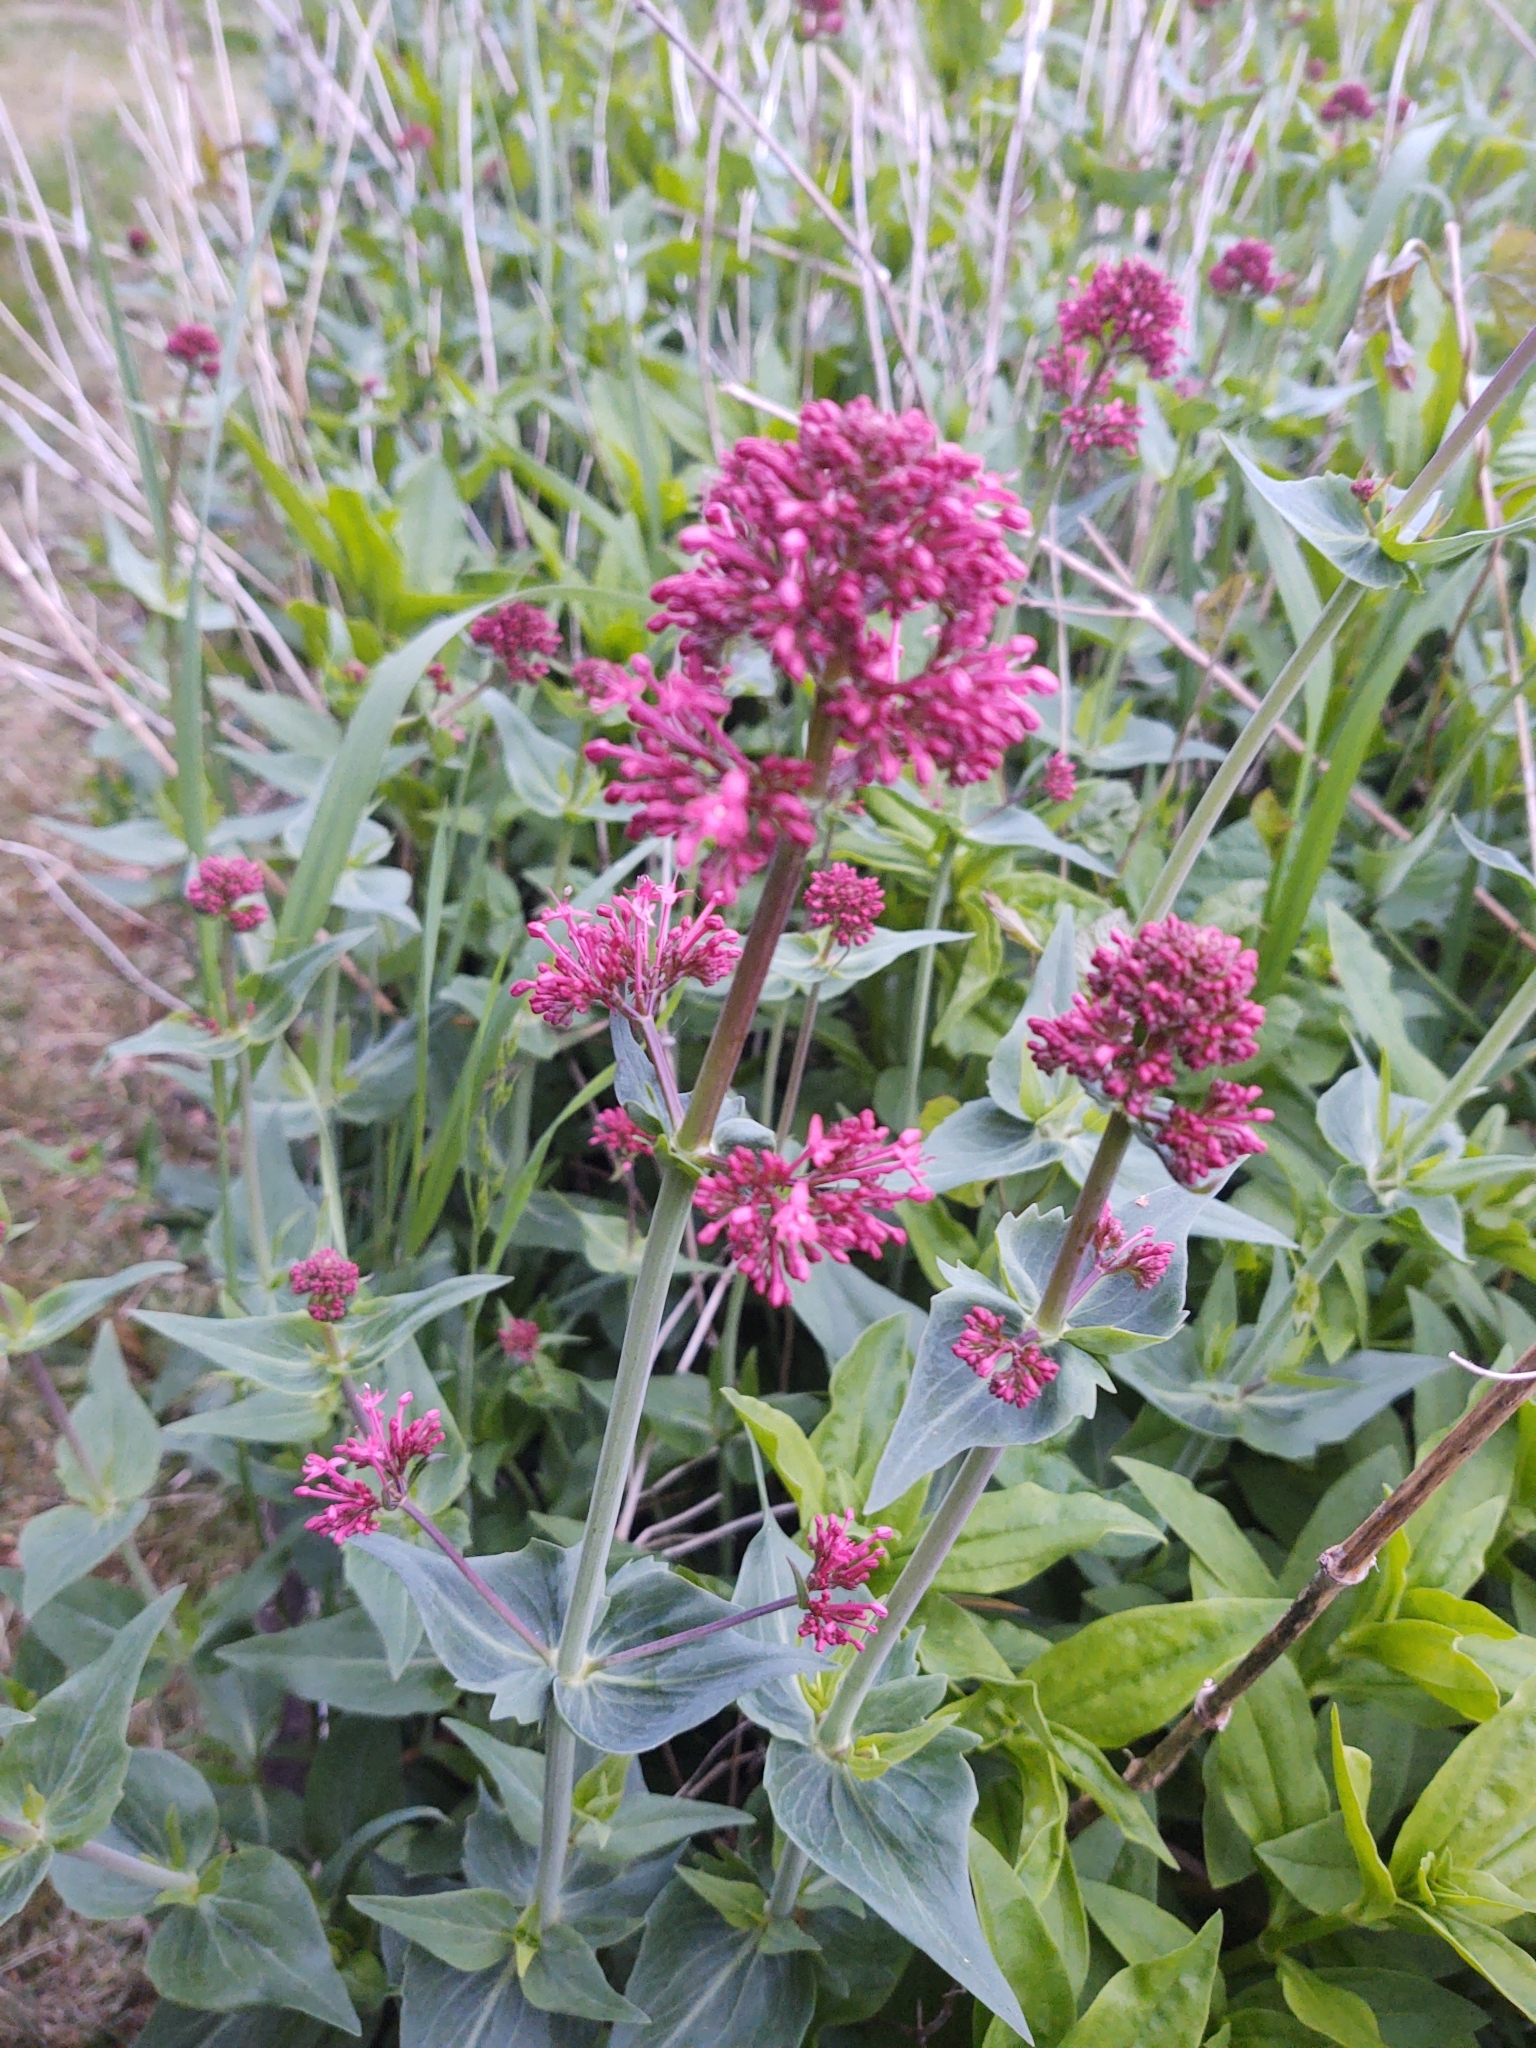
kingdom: Plantae
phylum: Tracheophyta
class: Magnoliopsida
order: Dipsacales
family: Caprifoliaceae
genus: Centranthus
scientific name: Centranthus ruber
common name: Red valerian
